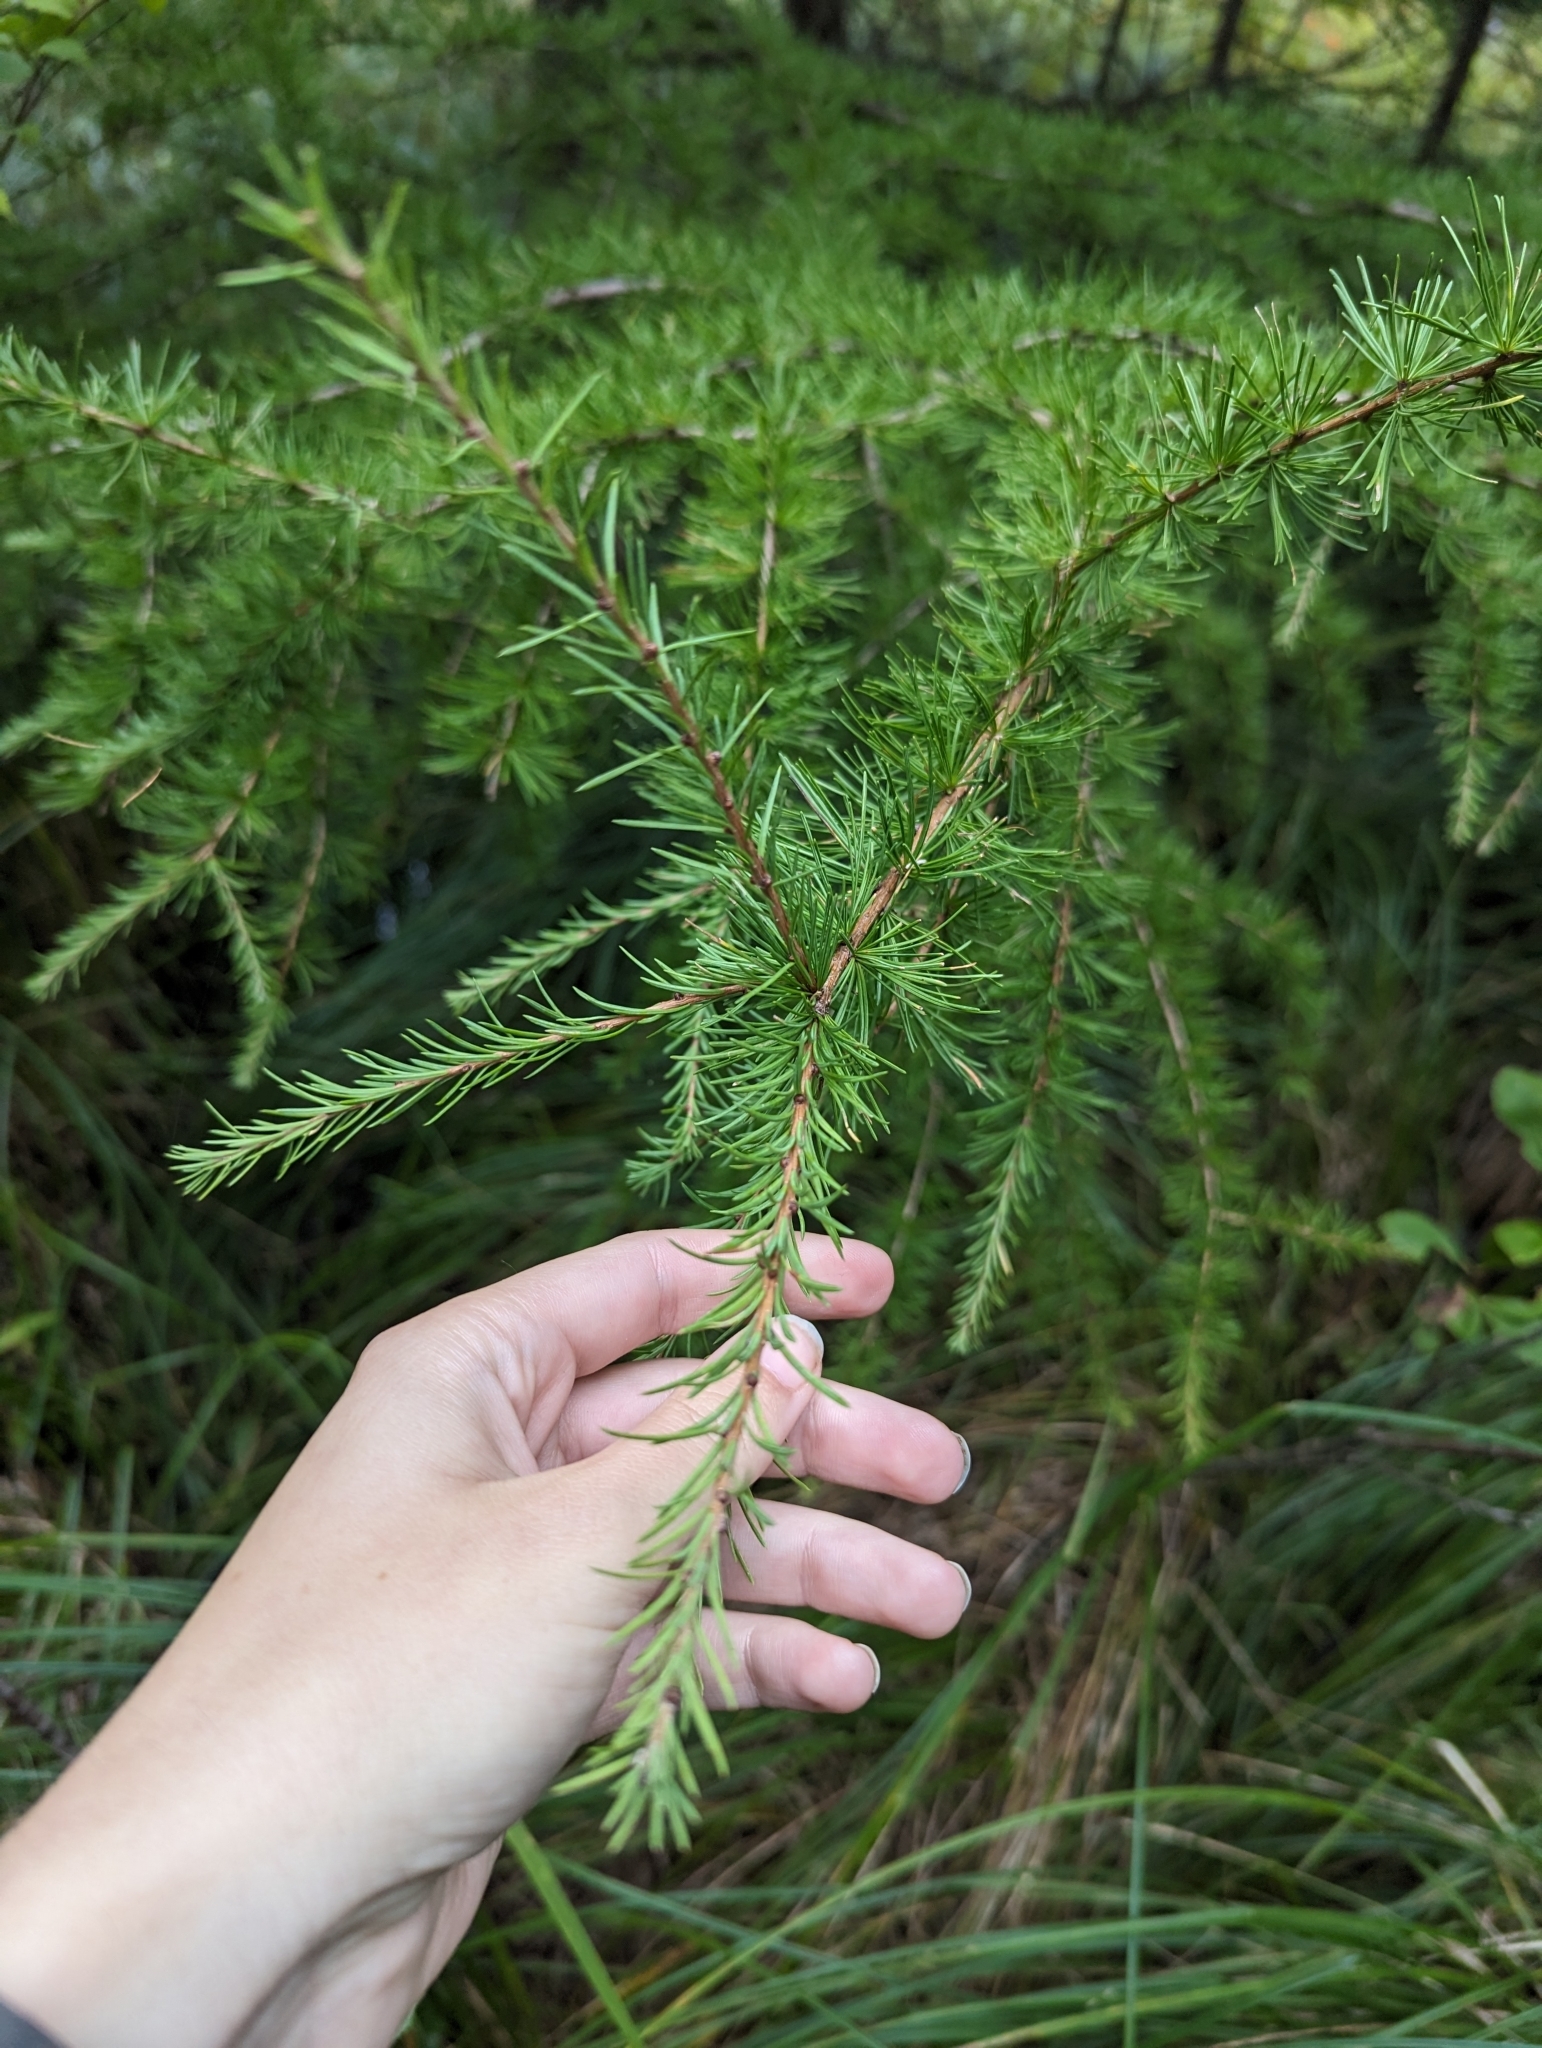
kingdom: Plantae
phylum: Tracheophyta
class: Pinopsida
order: Pinales
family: Pinaceae
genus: Larix
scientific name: Larix laricina
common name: American larch
